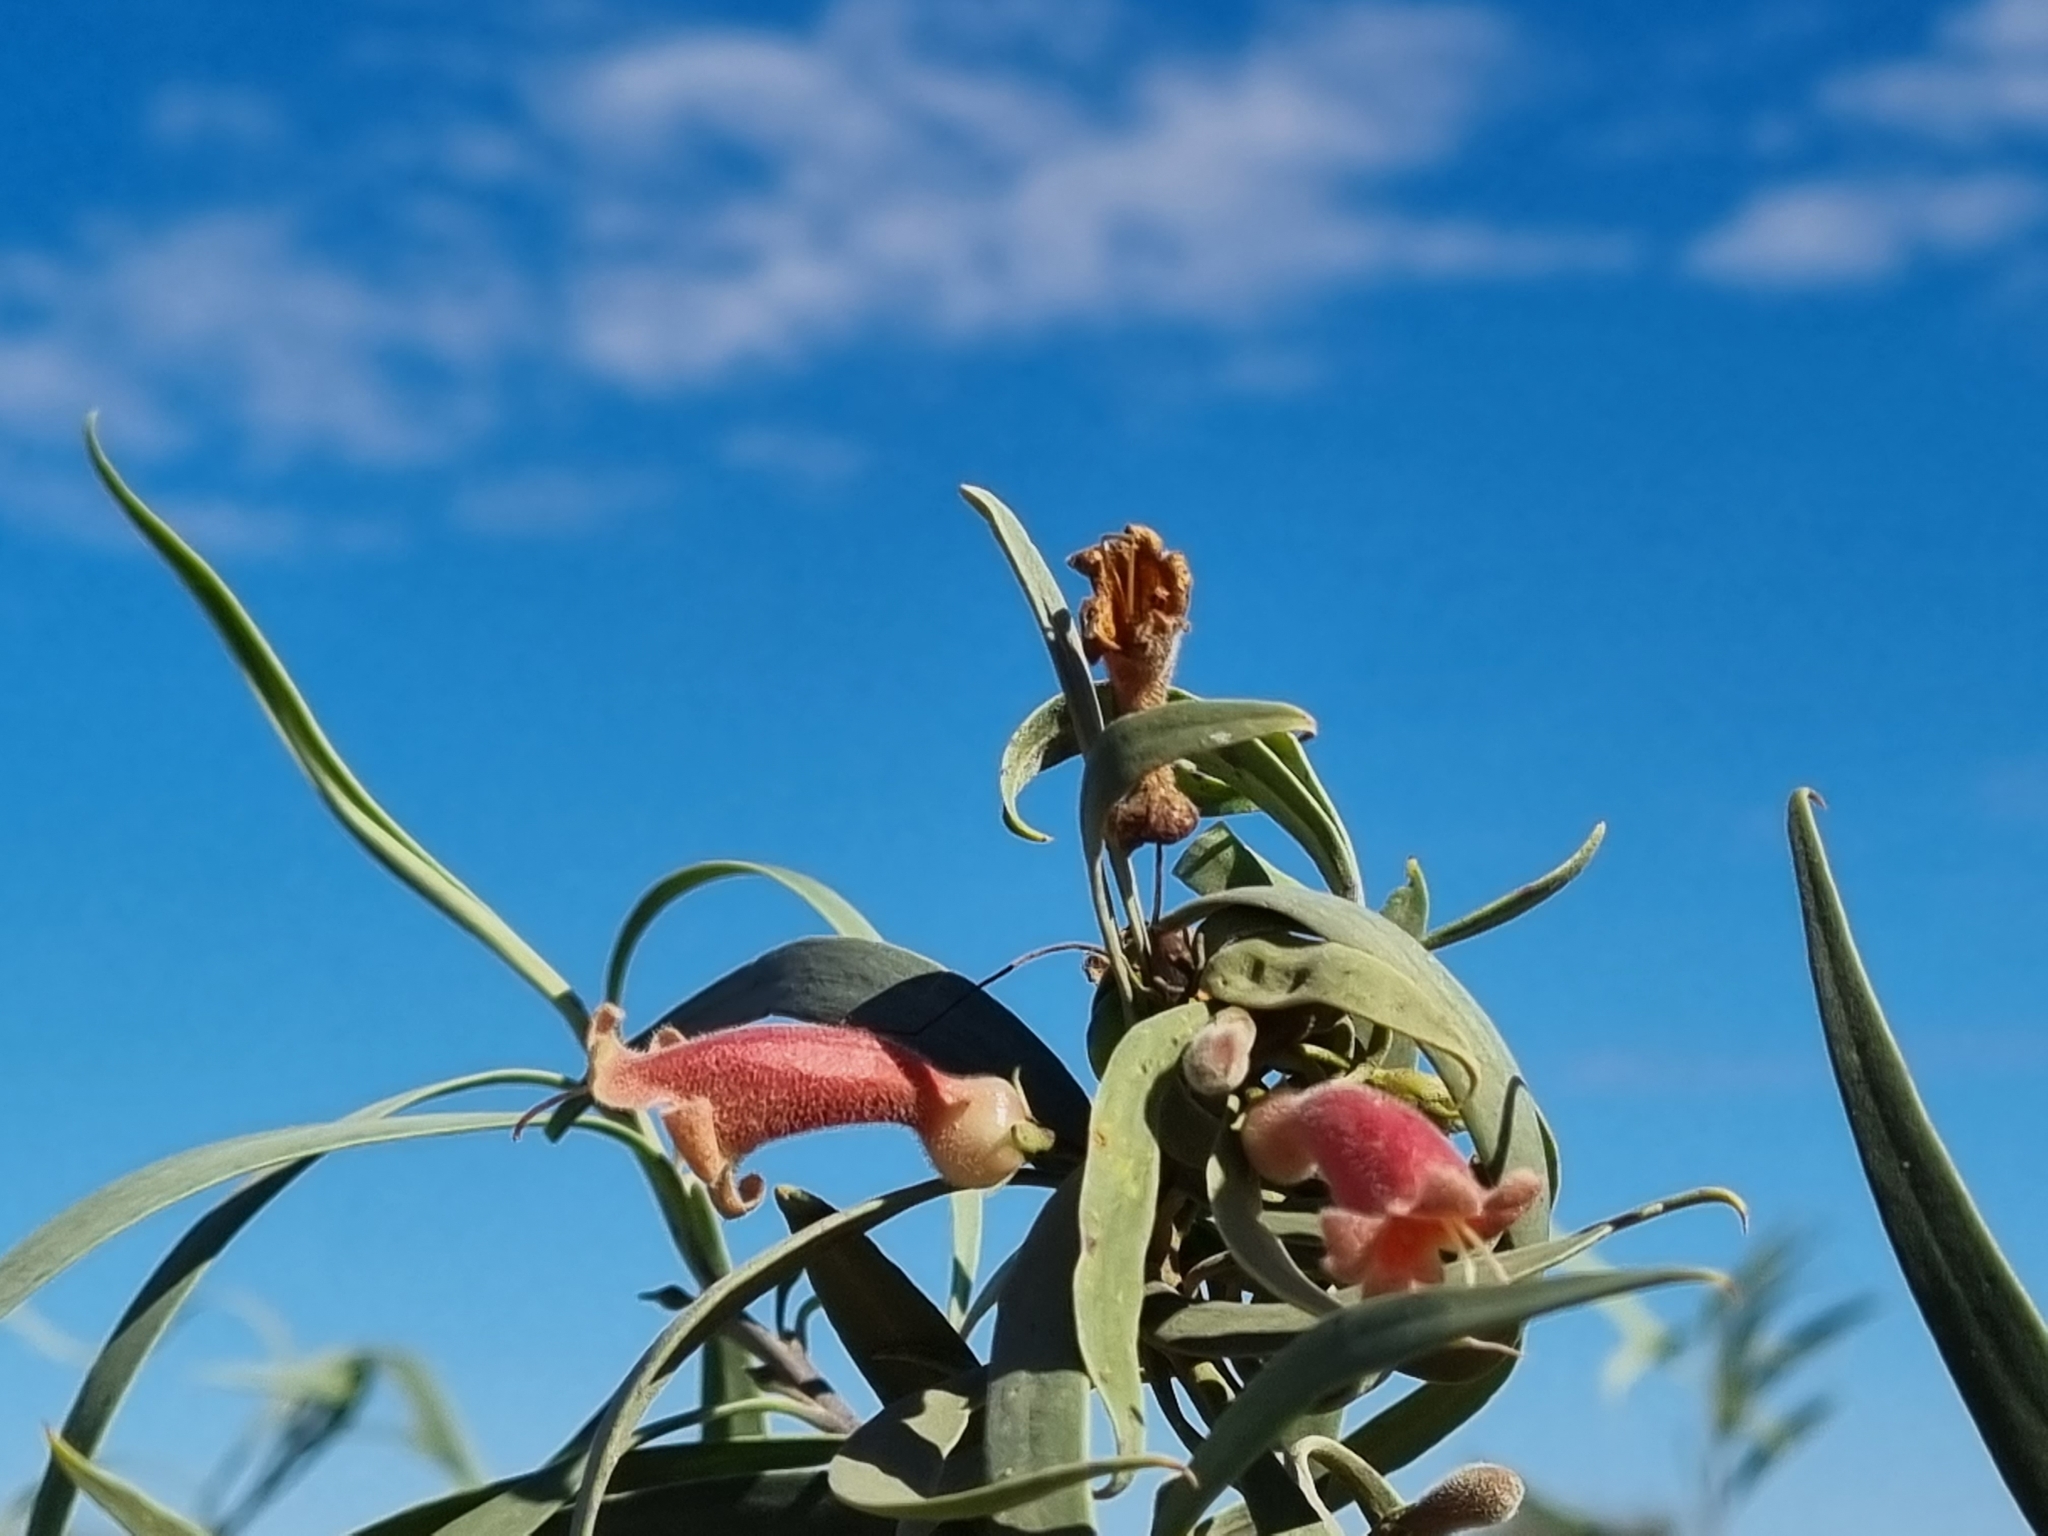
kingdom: Plantae
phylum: Tracheophyta
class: Magnoliopsida
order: Lamiales
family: Scrophulariaceae
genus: Eremophila
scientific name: Eremophila longifolia
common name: Longleaf emubush
